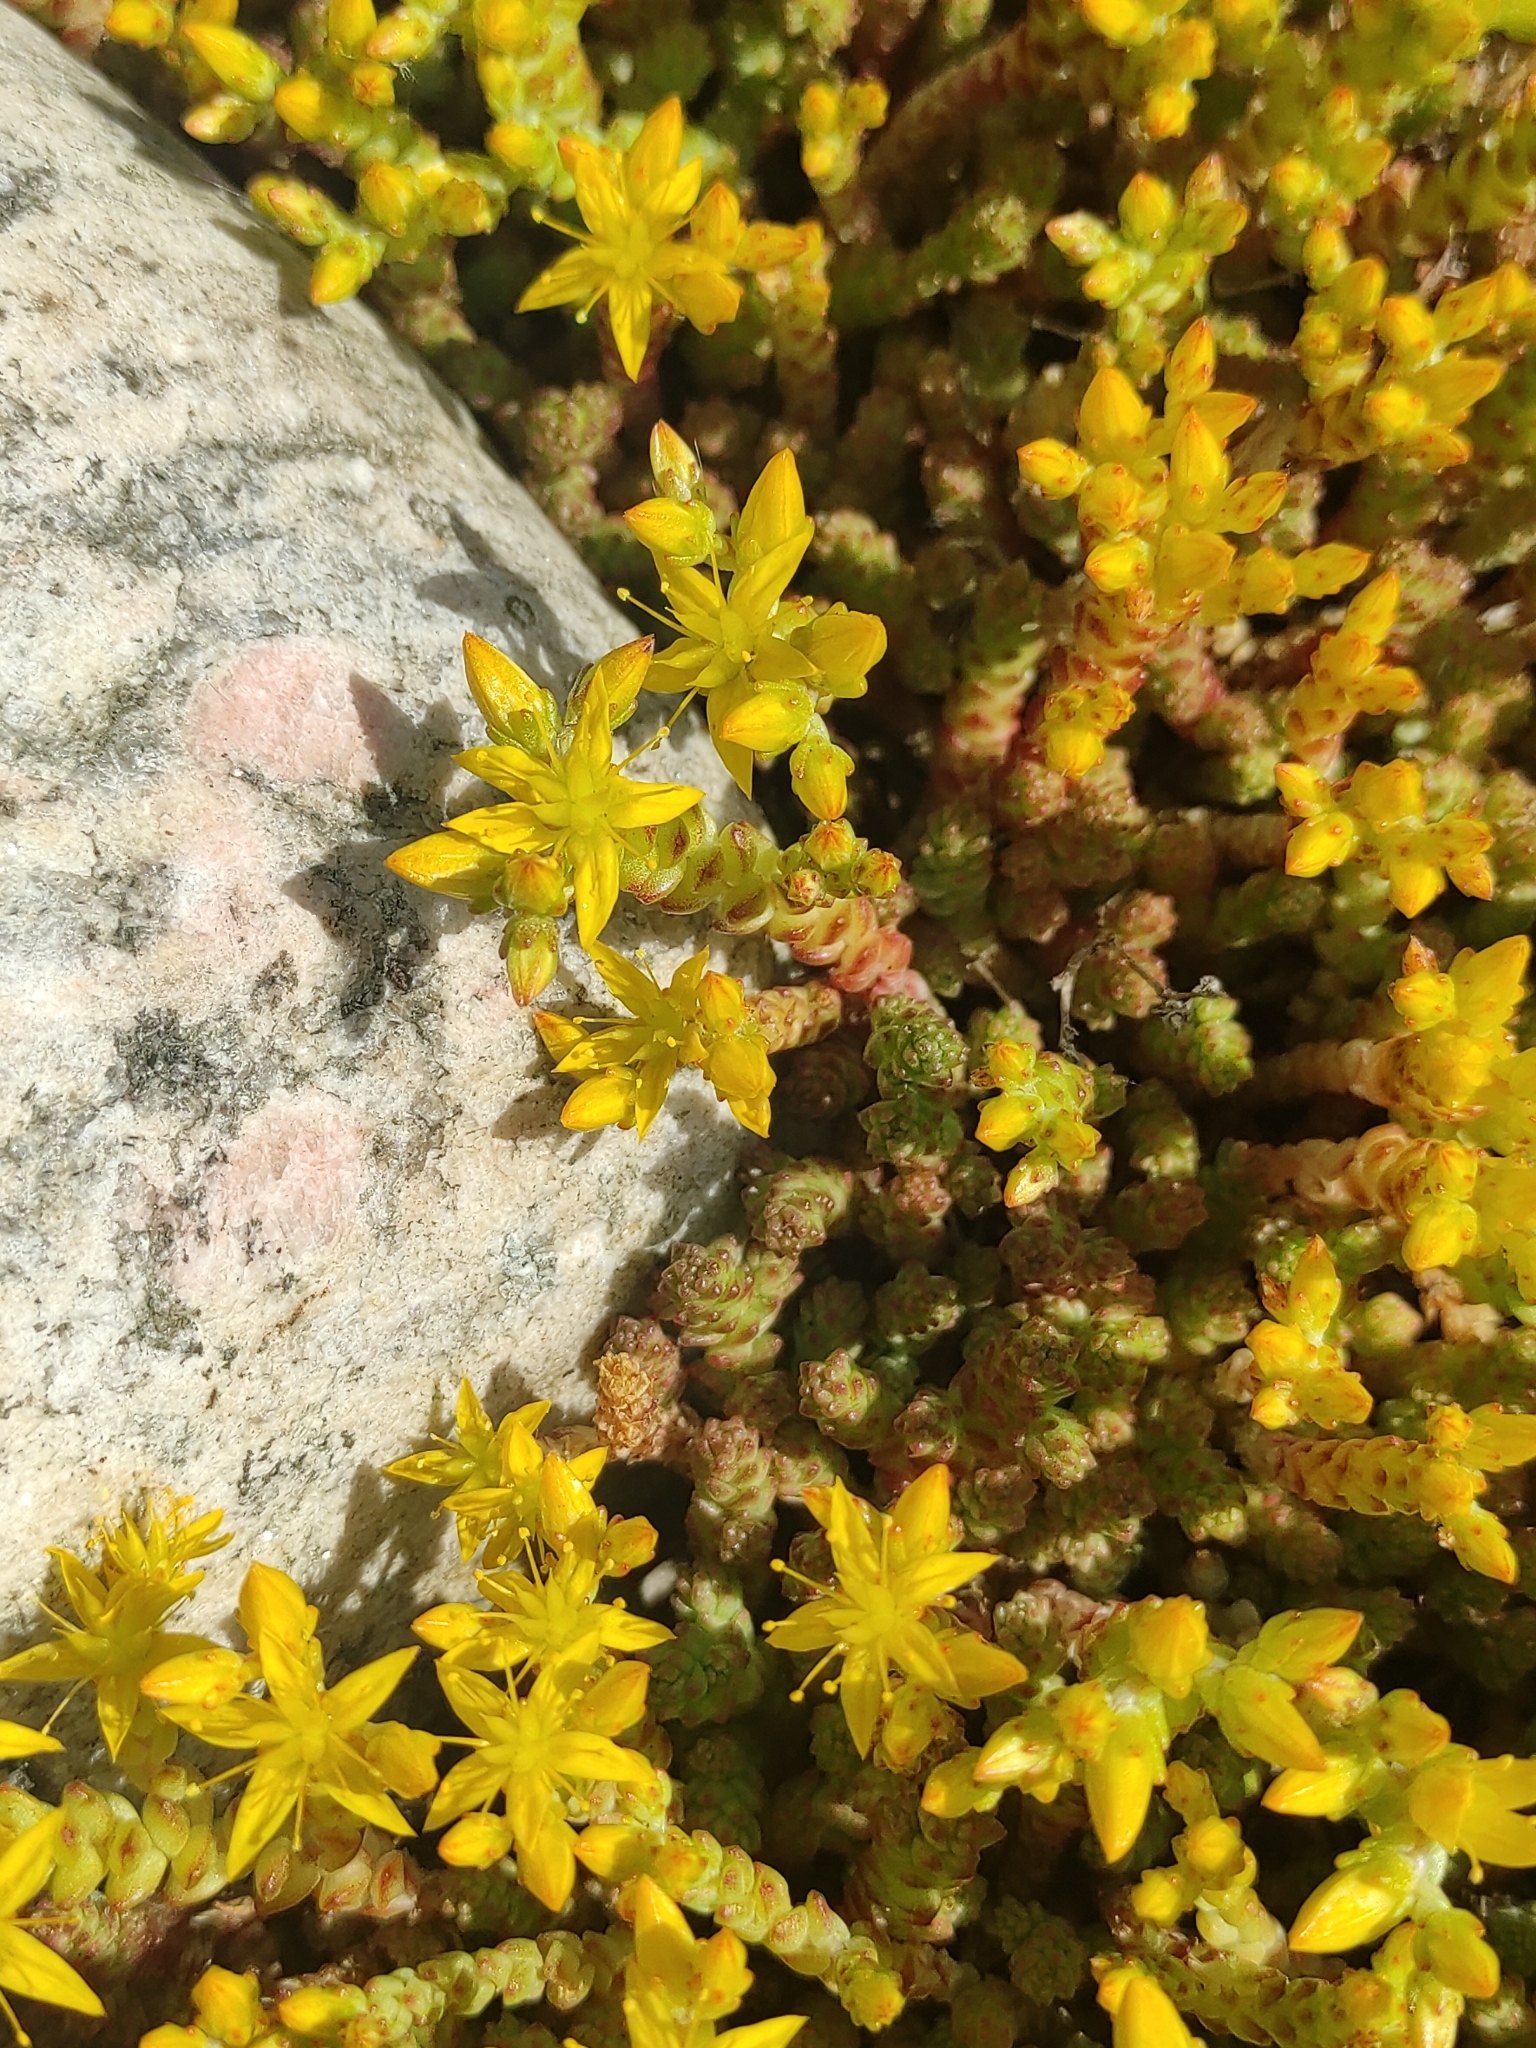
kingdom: Plantae
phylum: Tracheophyta
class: Magnoliopsida
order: Saxifragales
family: Crassulaceae
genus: Sedum
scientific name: Sedum acre
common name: Biting stonecrop
